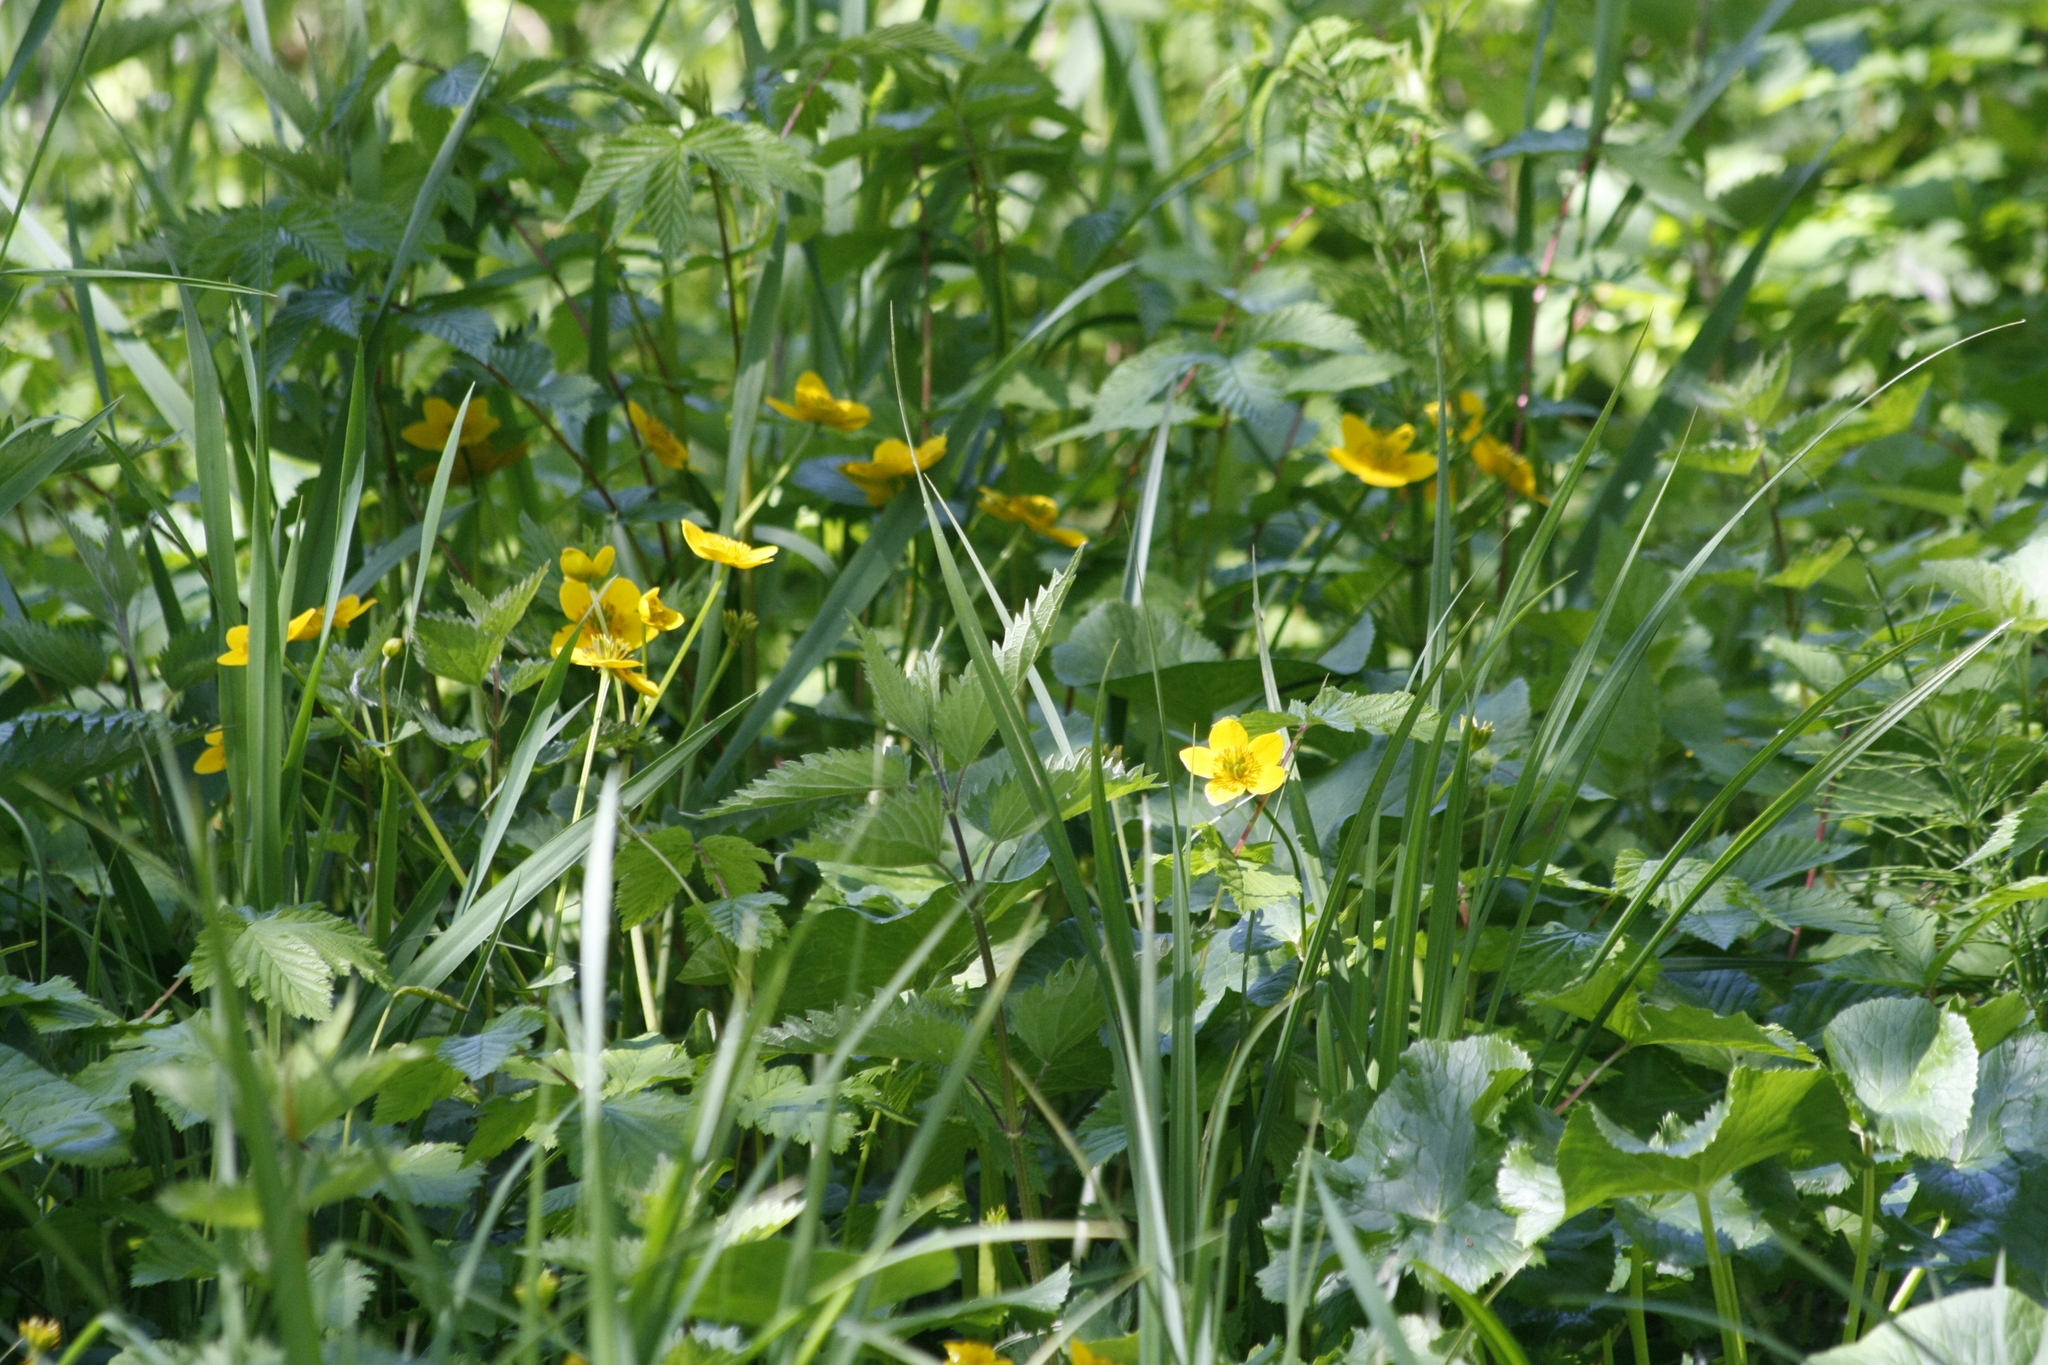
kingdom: Plantae
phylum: Tracheophyta
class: Magnoliopsida
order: Ranunculales
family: Ranunculaceae
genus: Caltha
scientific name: Caltha palustris
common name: Marsh marigold
